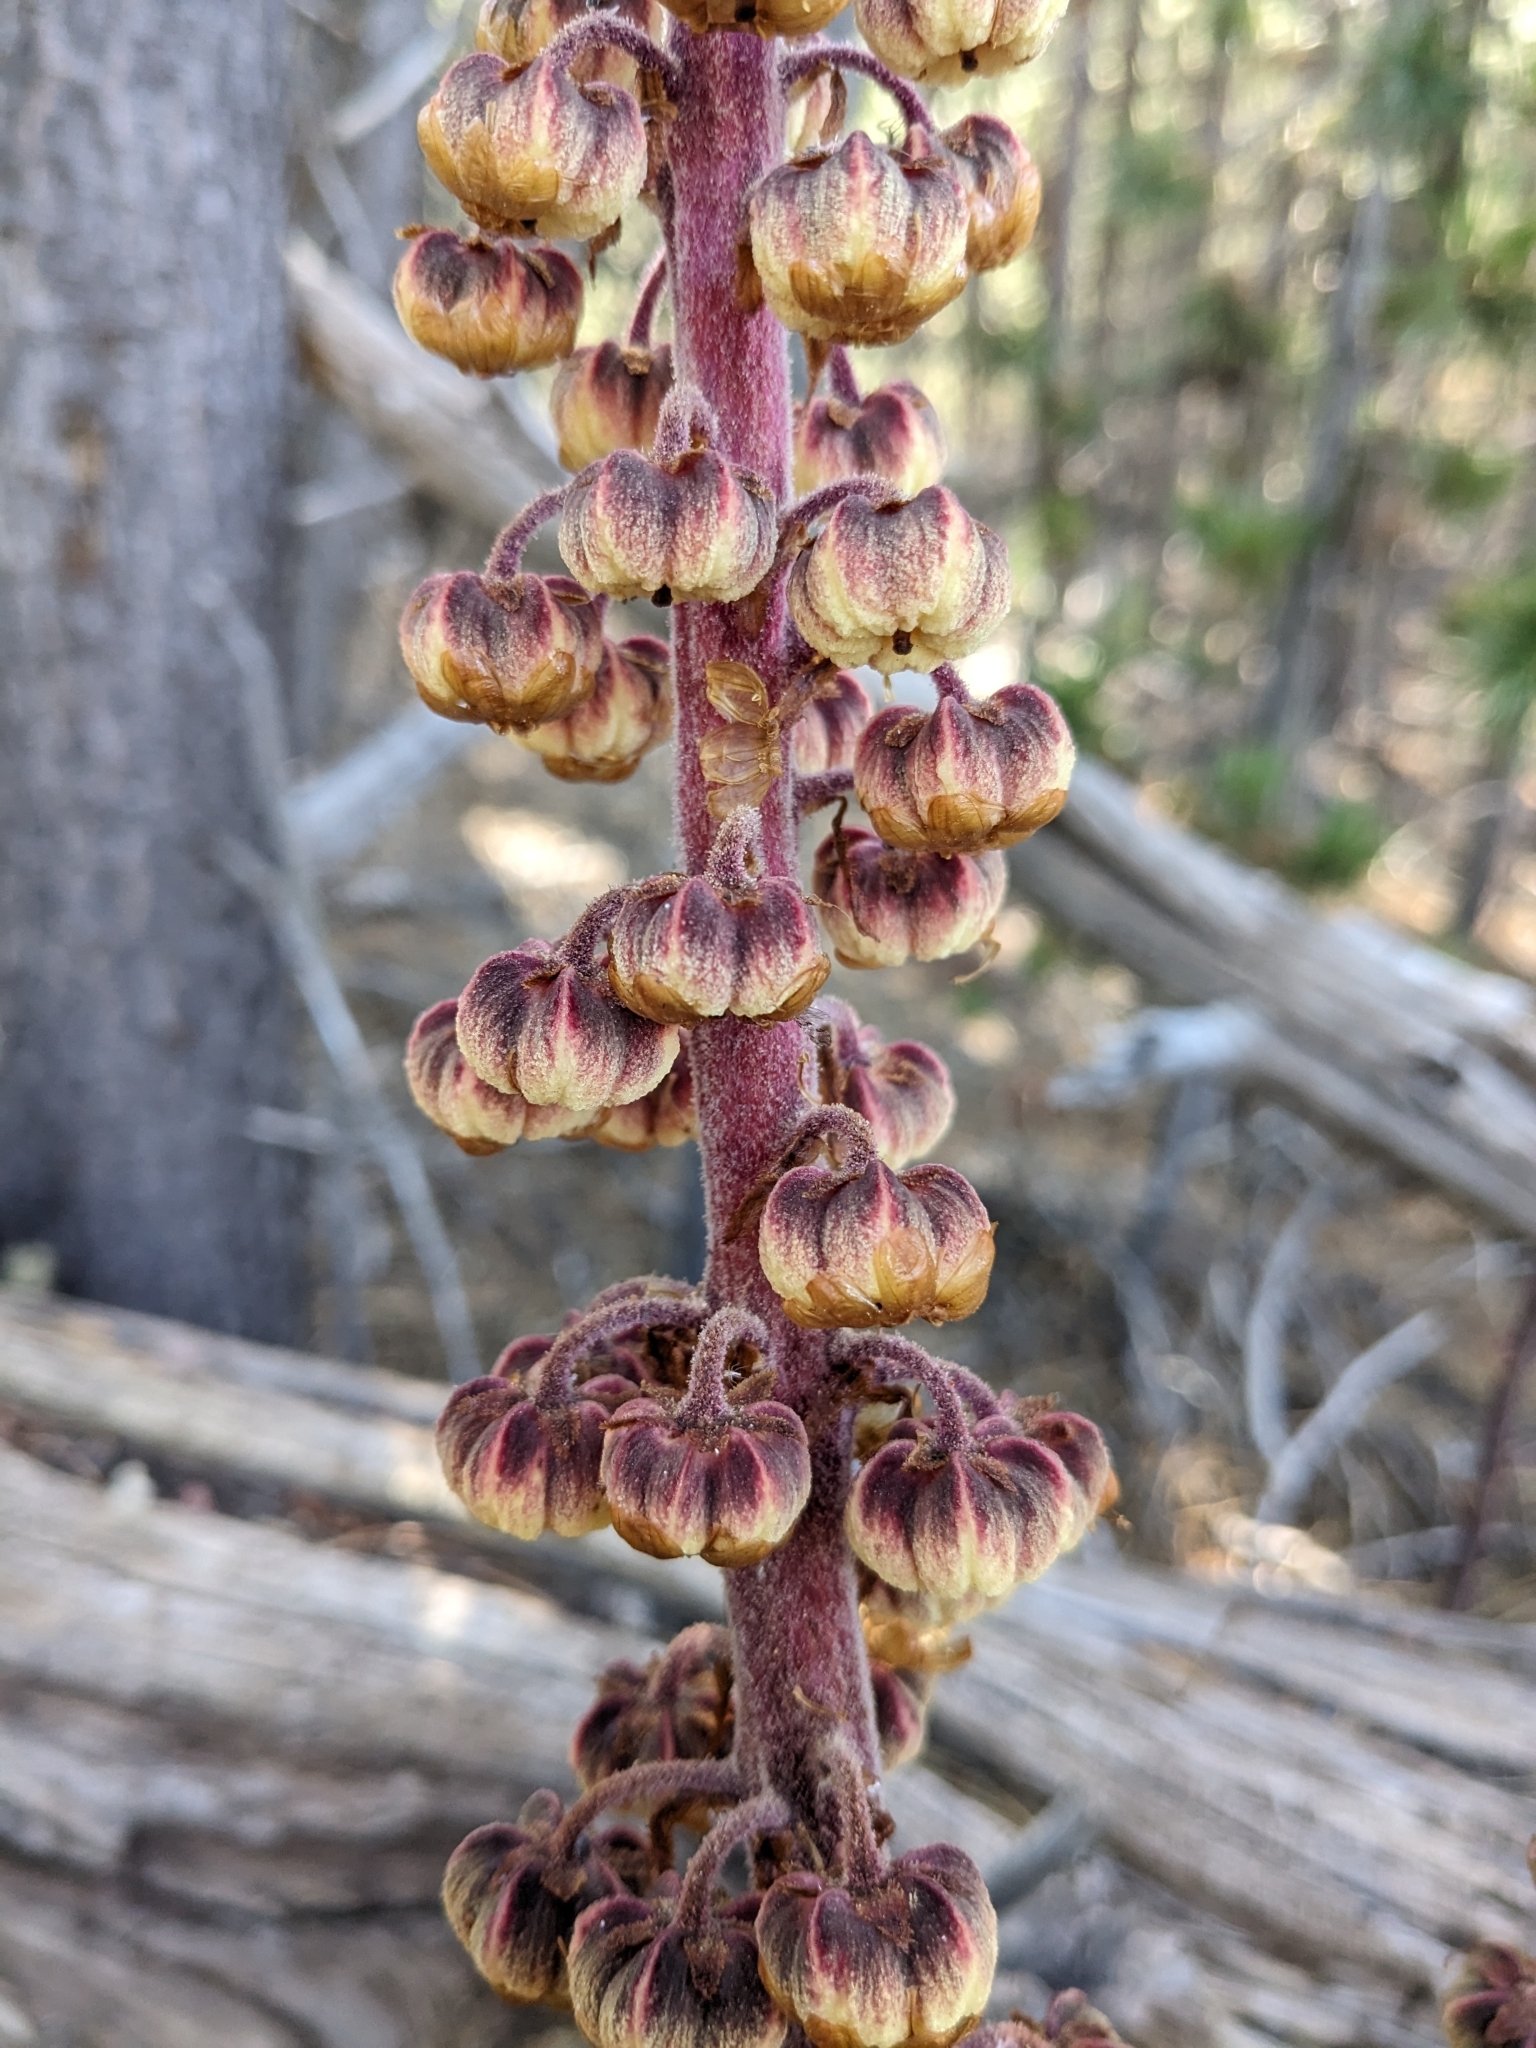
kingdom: Plantae
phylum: Tracheophyta
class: Magnoliopsida
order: Ericales
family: Ericaceae
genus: Pterospora
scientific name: Pterospora andromedea
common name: Giant bird's-nest
